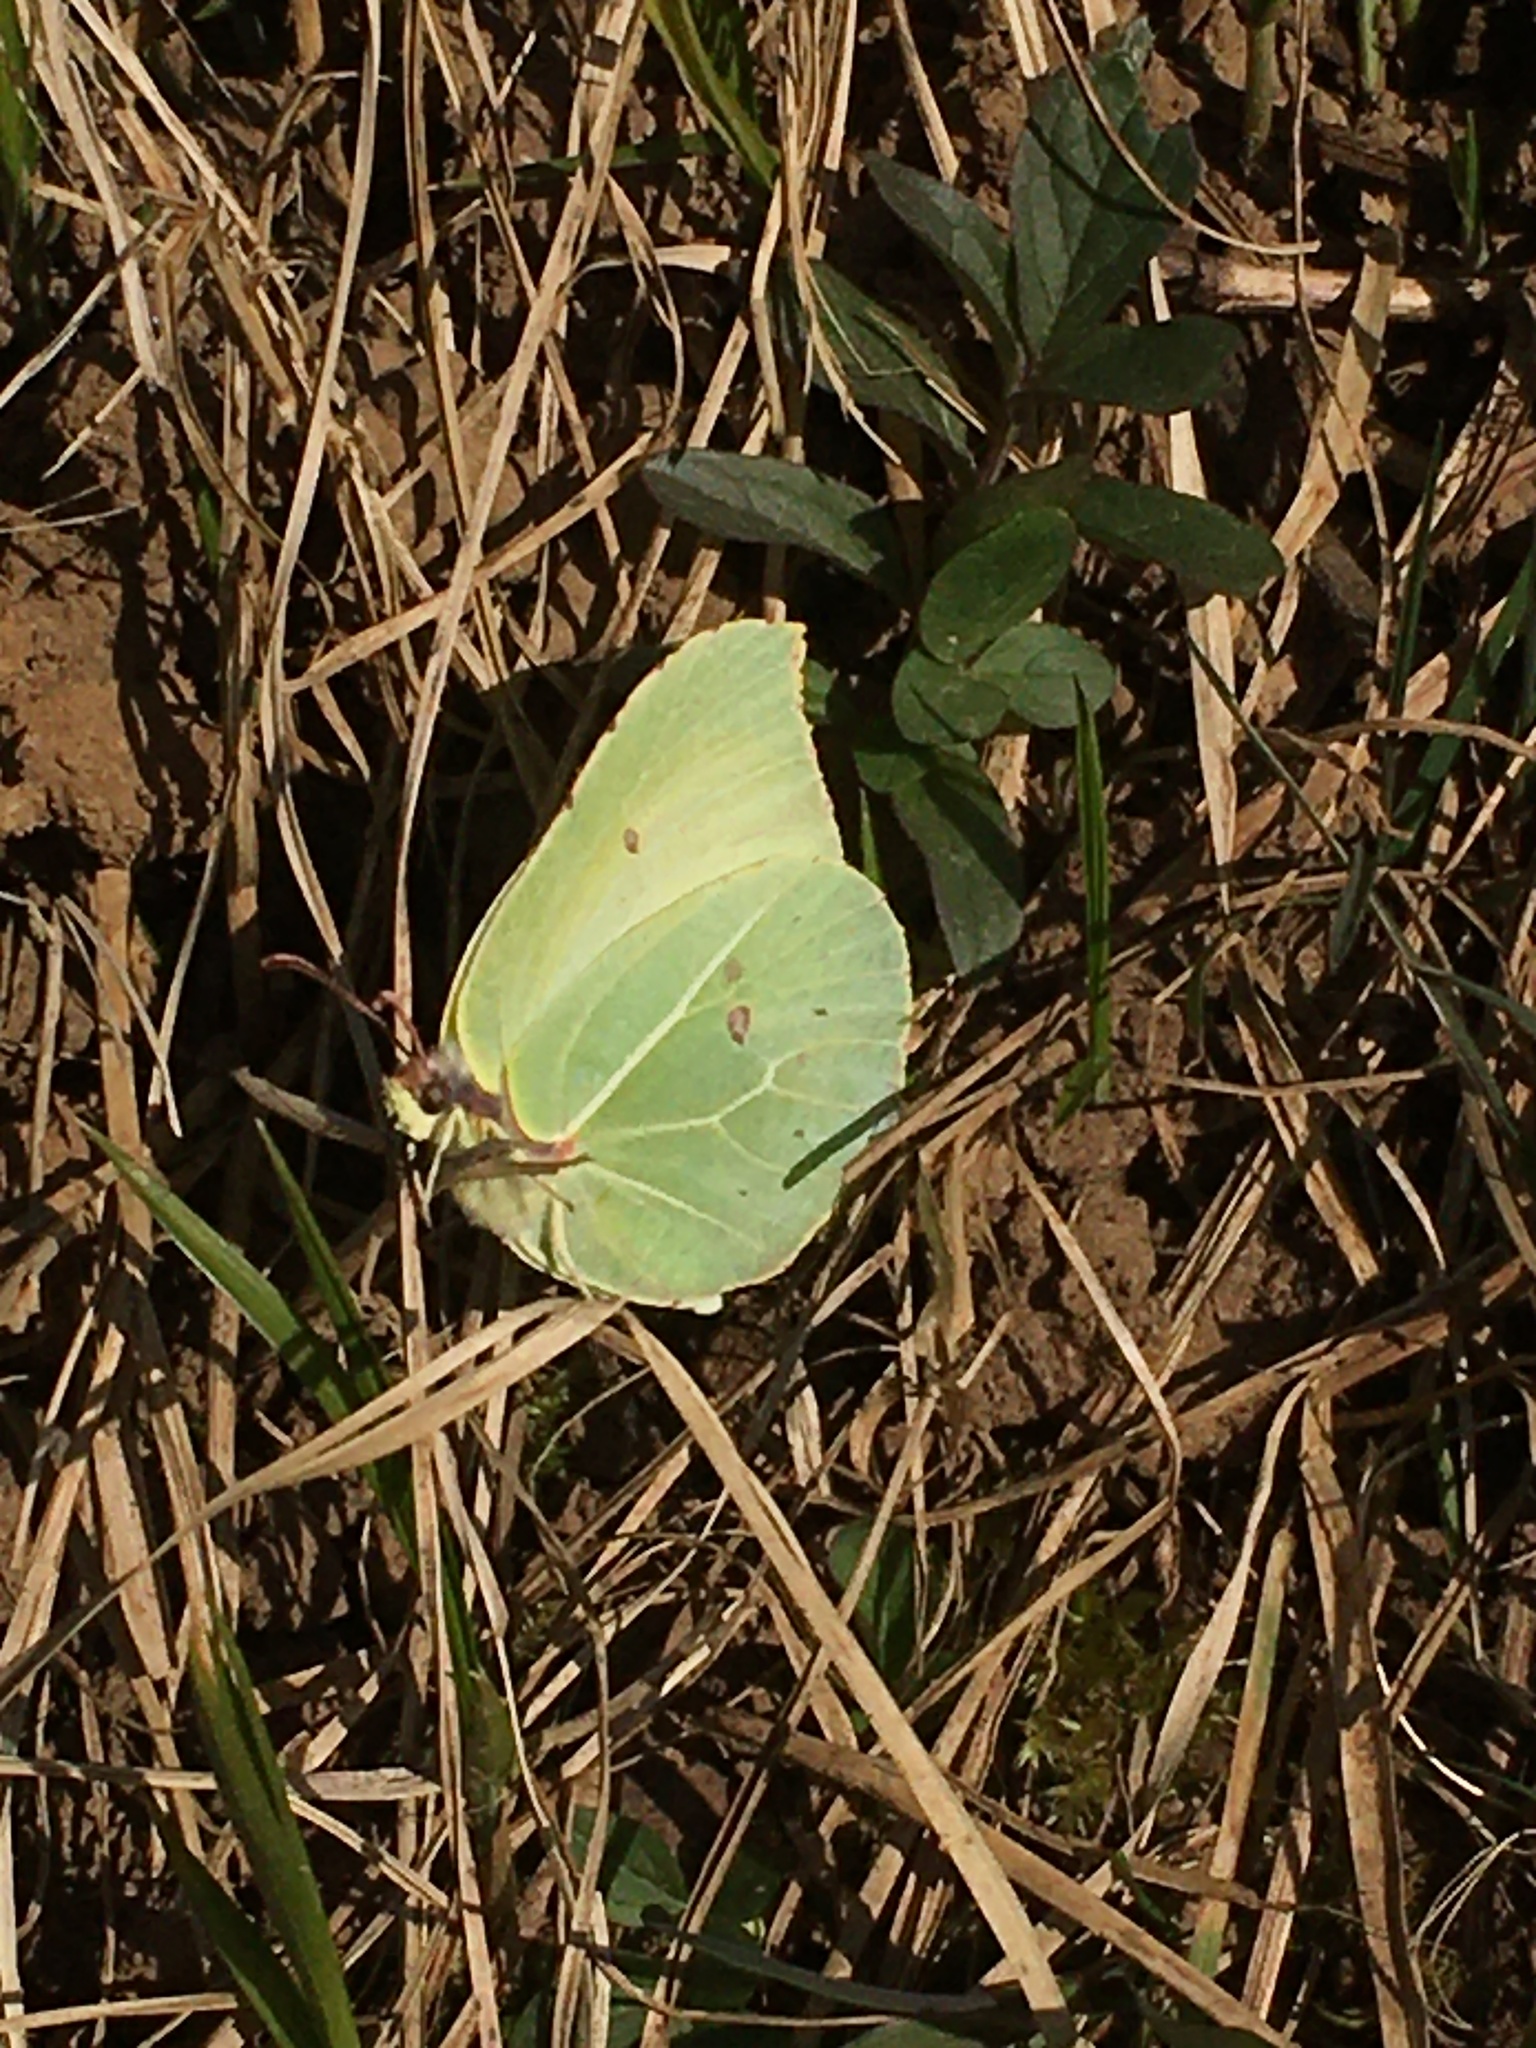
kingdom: Animalia
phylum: Arthropoda
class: Insecta
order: Lepidoptera
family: Pieridae
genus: Gonepteryx
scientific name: Gonepteryx rhamni
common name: Brimstone
